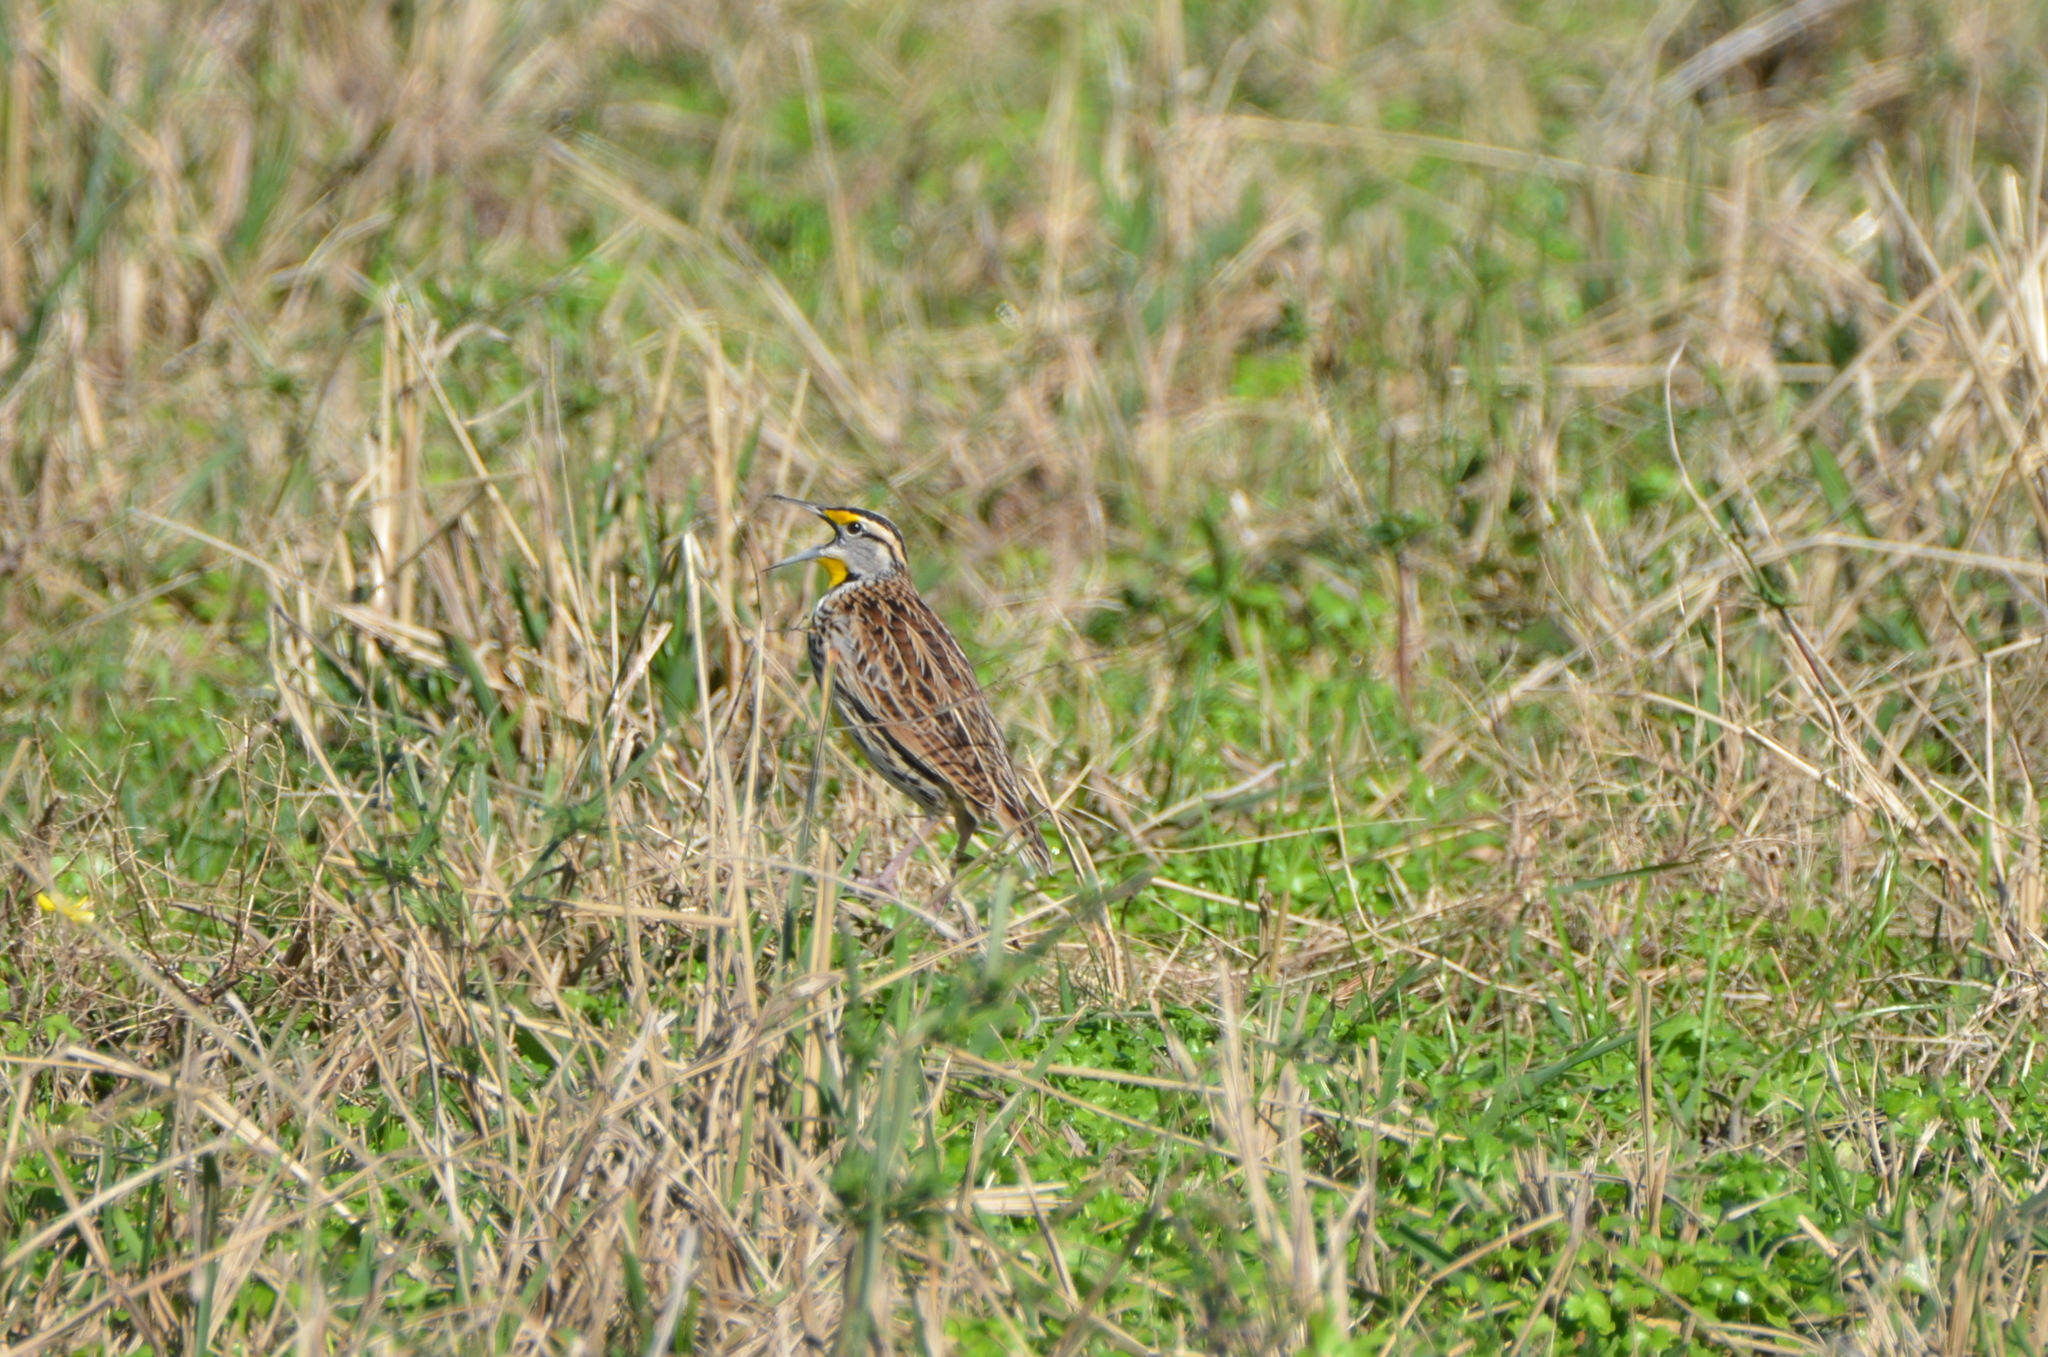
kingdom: Animalia
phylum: Chordata
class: Aves
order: Passeriformes
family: Icteridae
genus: Sturnella
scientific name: Sturnella magna
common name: Eastern meadowlark
